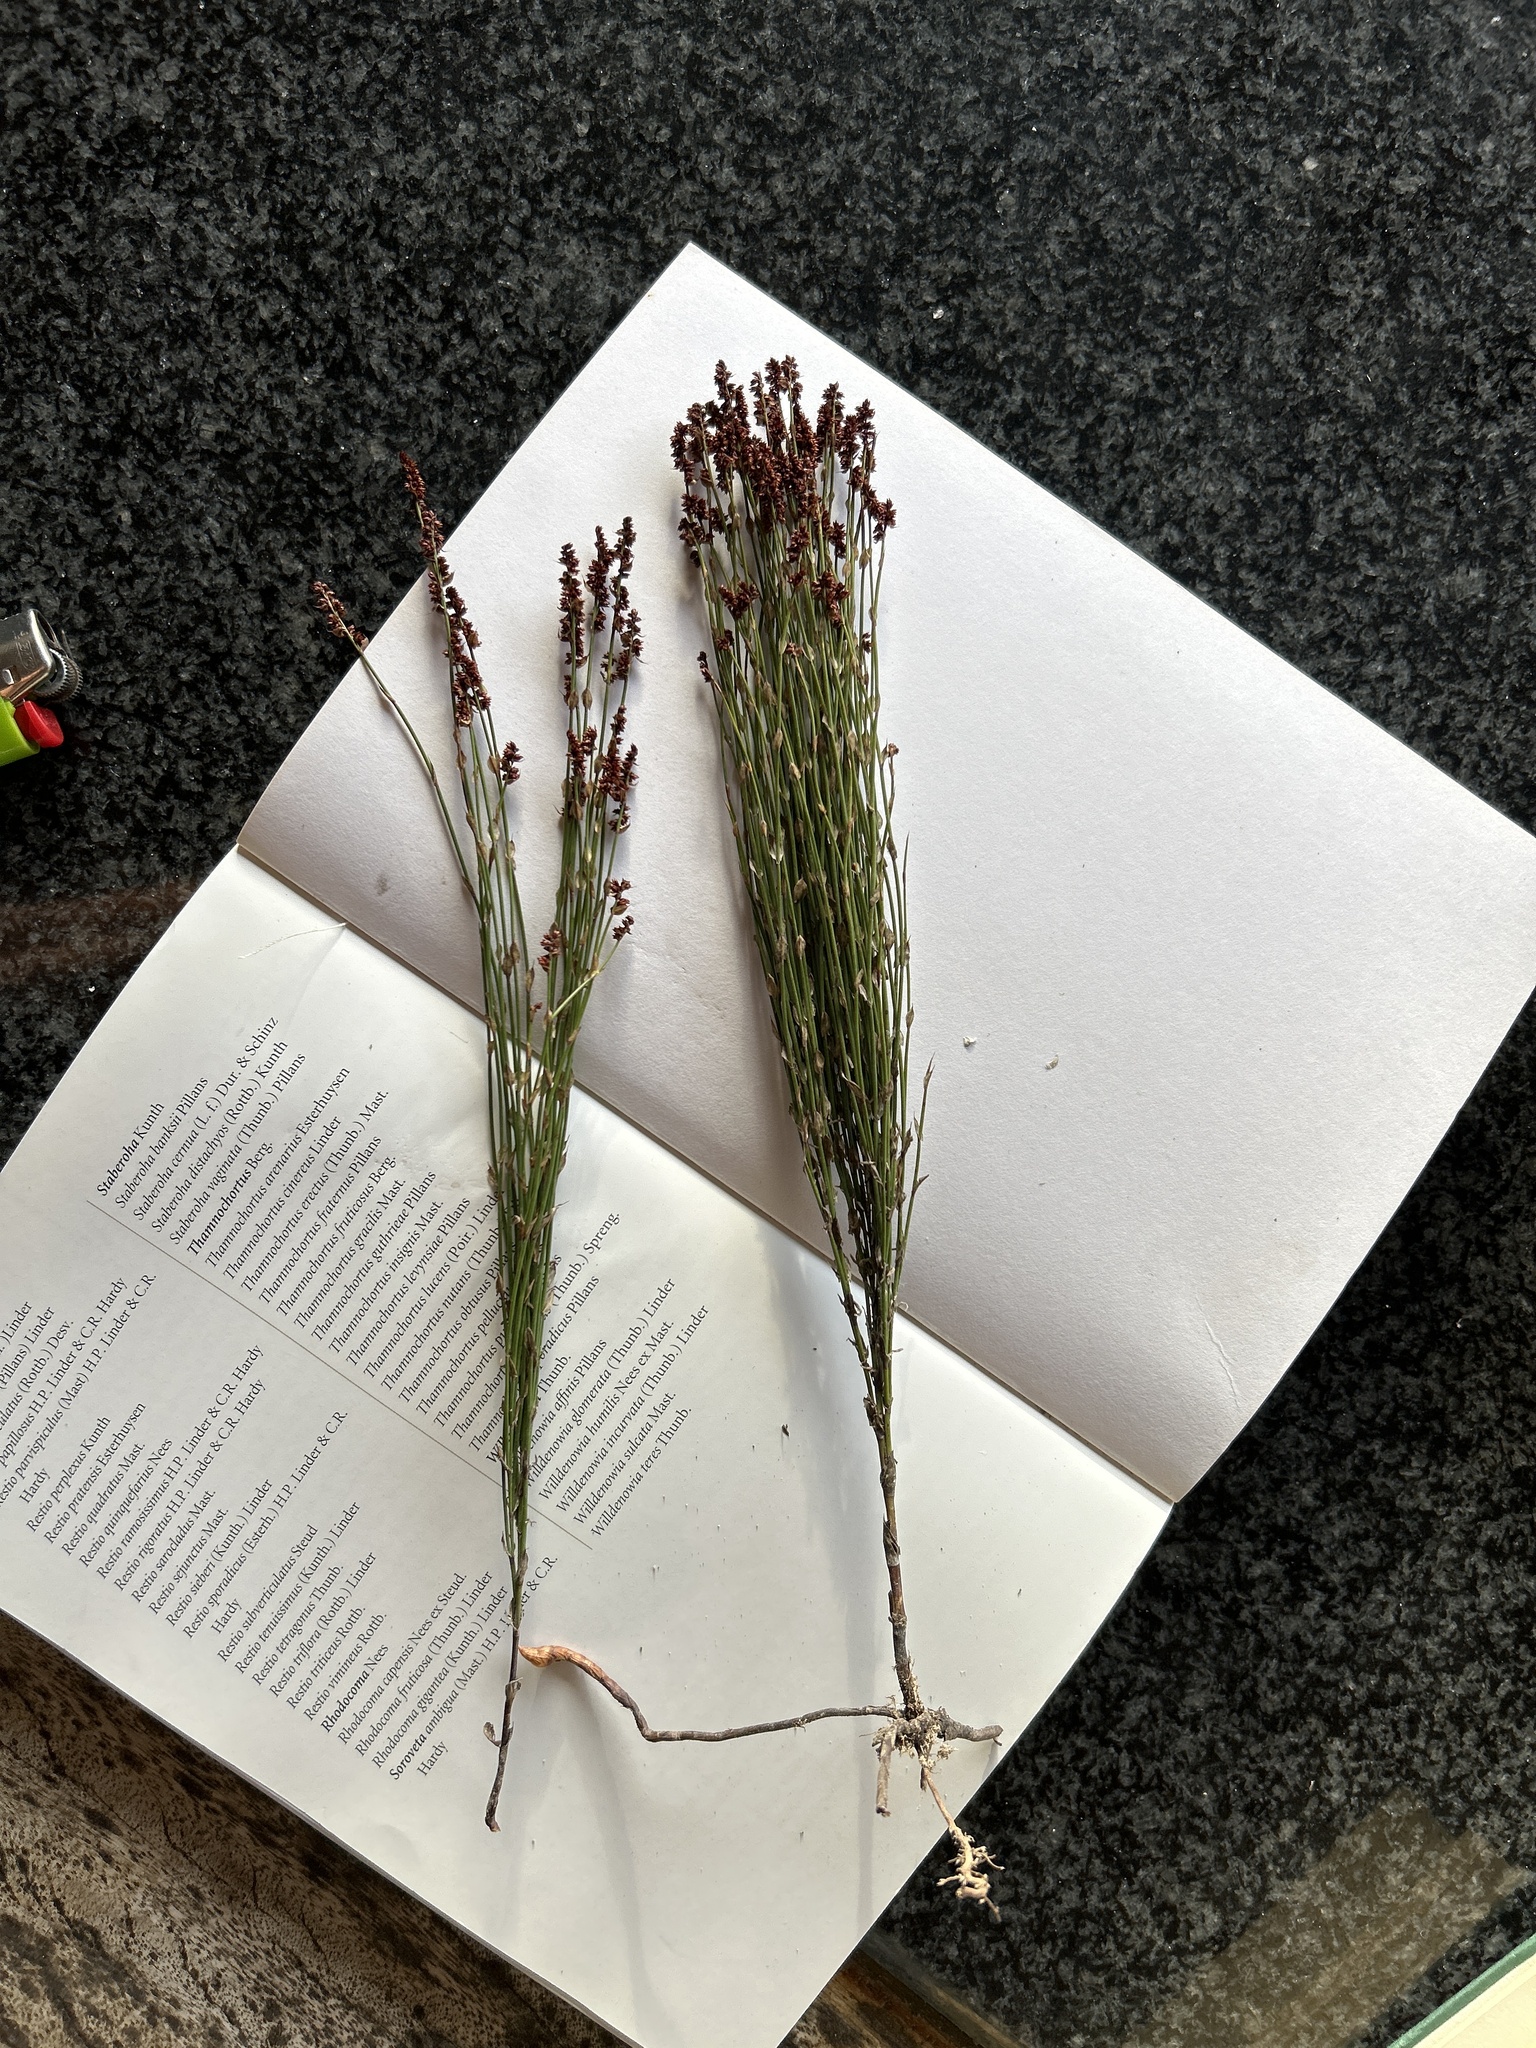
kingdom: Plantae
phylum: Tracheophyta
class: Liliopsida
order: Poales
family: Restionaceae
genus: Elegia
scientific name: Elegia microcarpa
